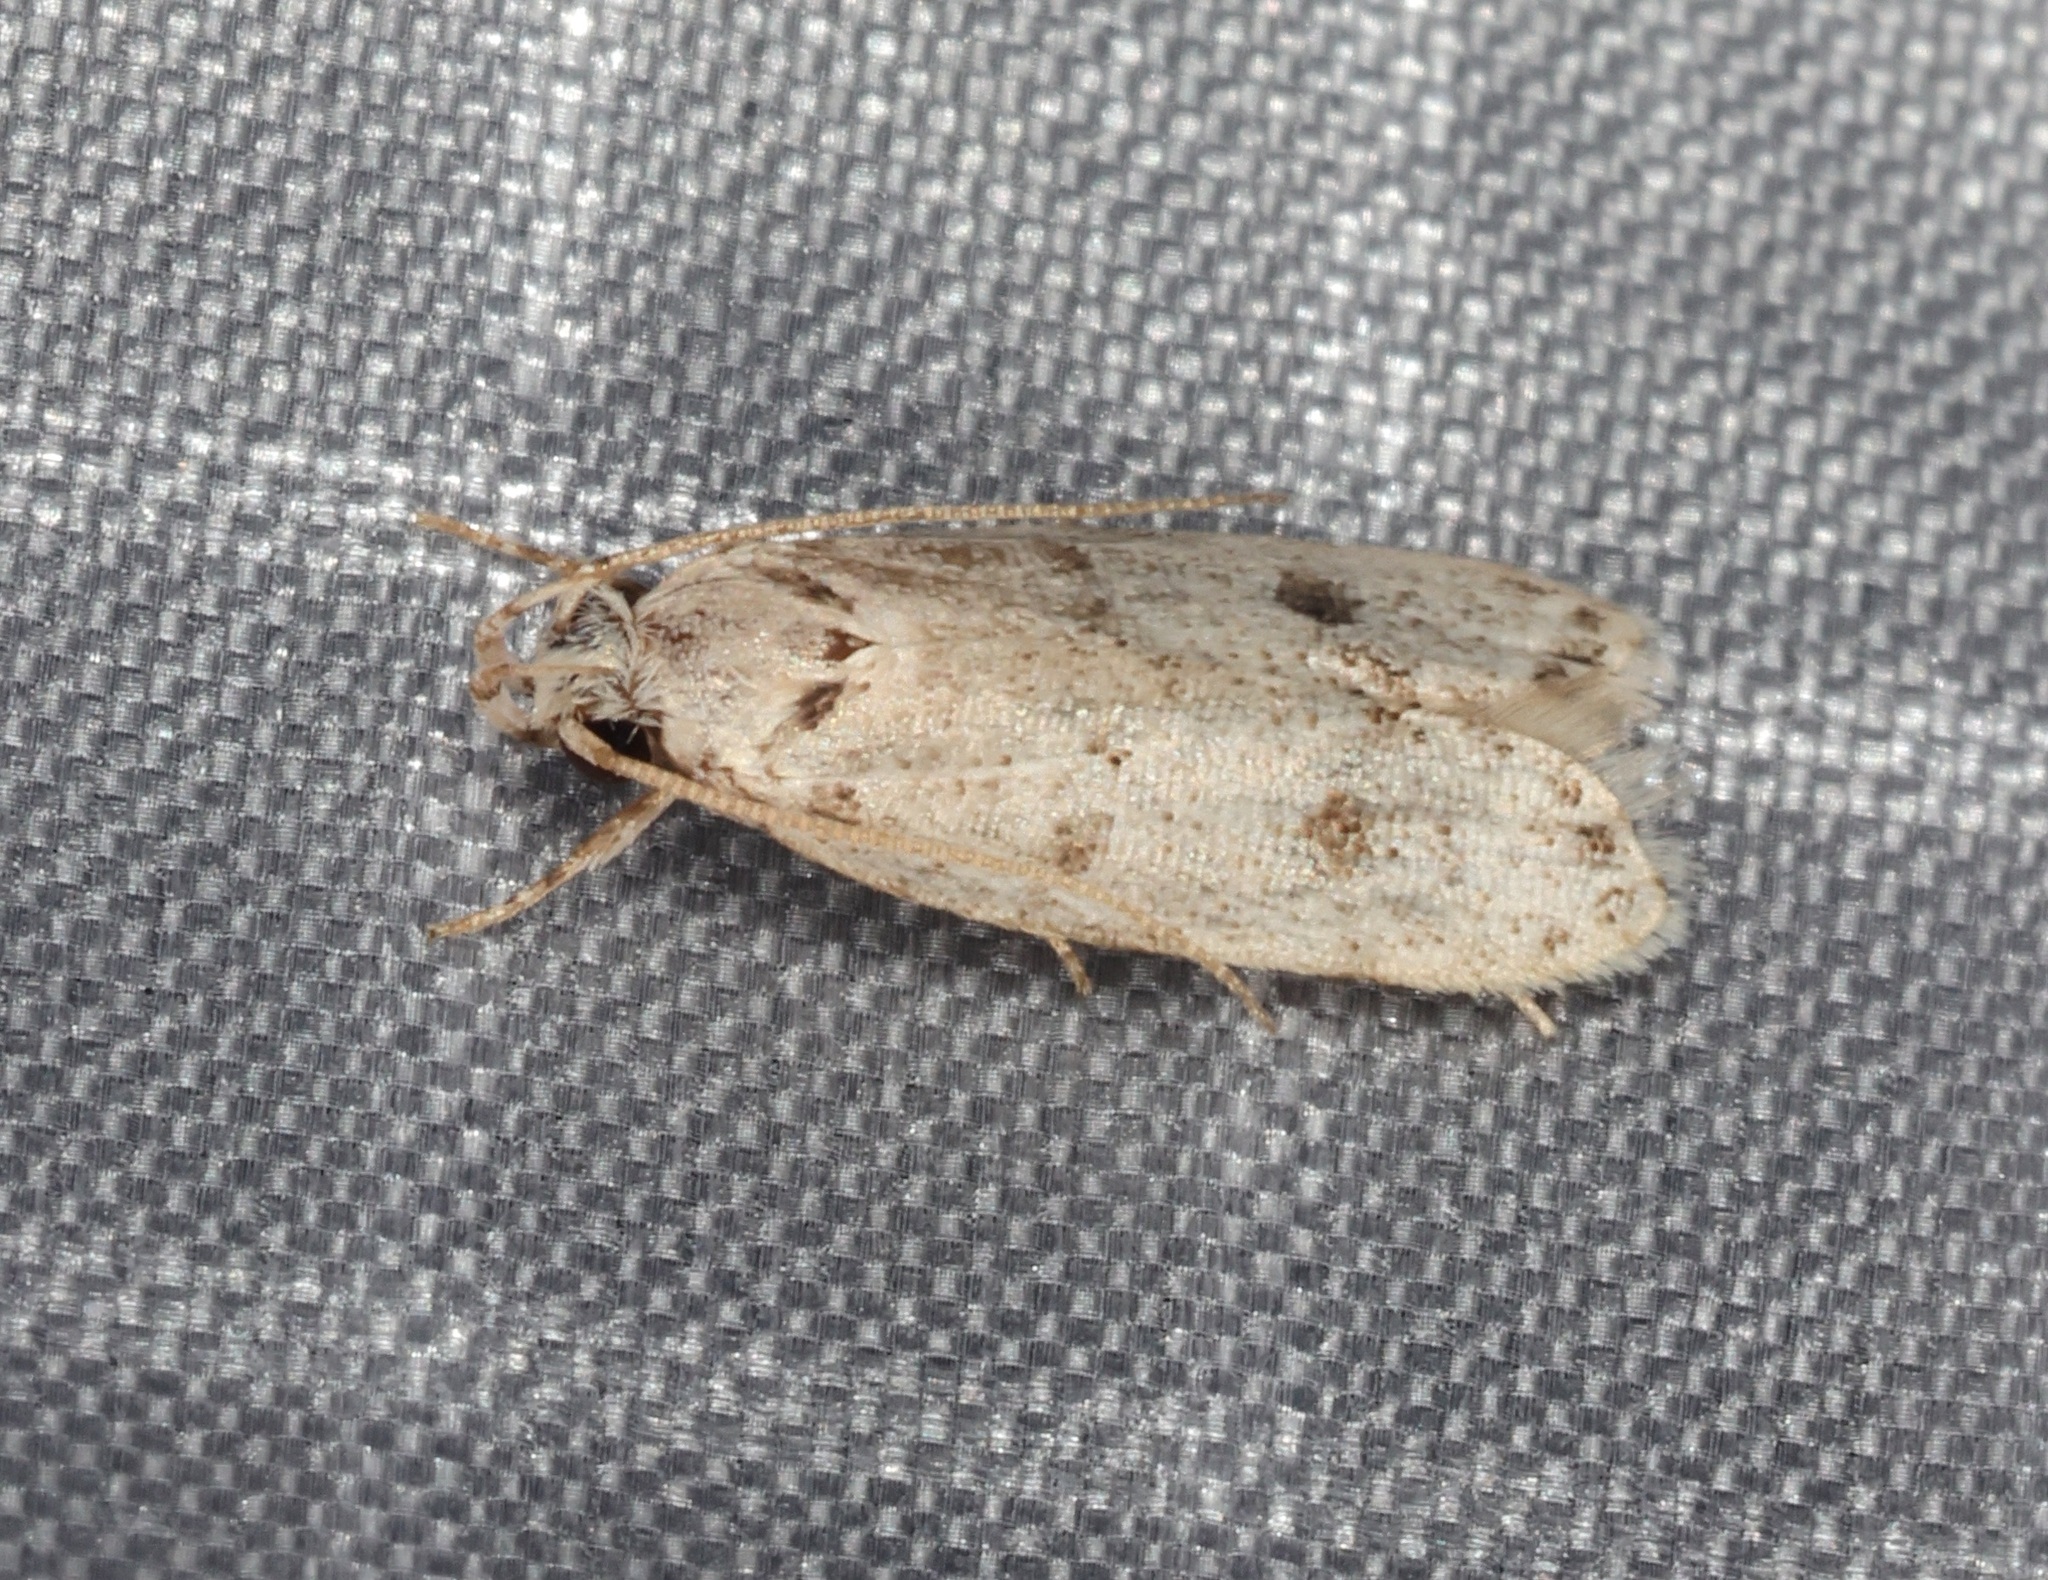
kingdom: Animalia
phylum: Arthropoda
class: Insecta
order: Lepidoptera
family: Autostichidae
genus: Autosticha
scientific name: Autosticha calceata
